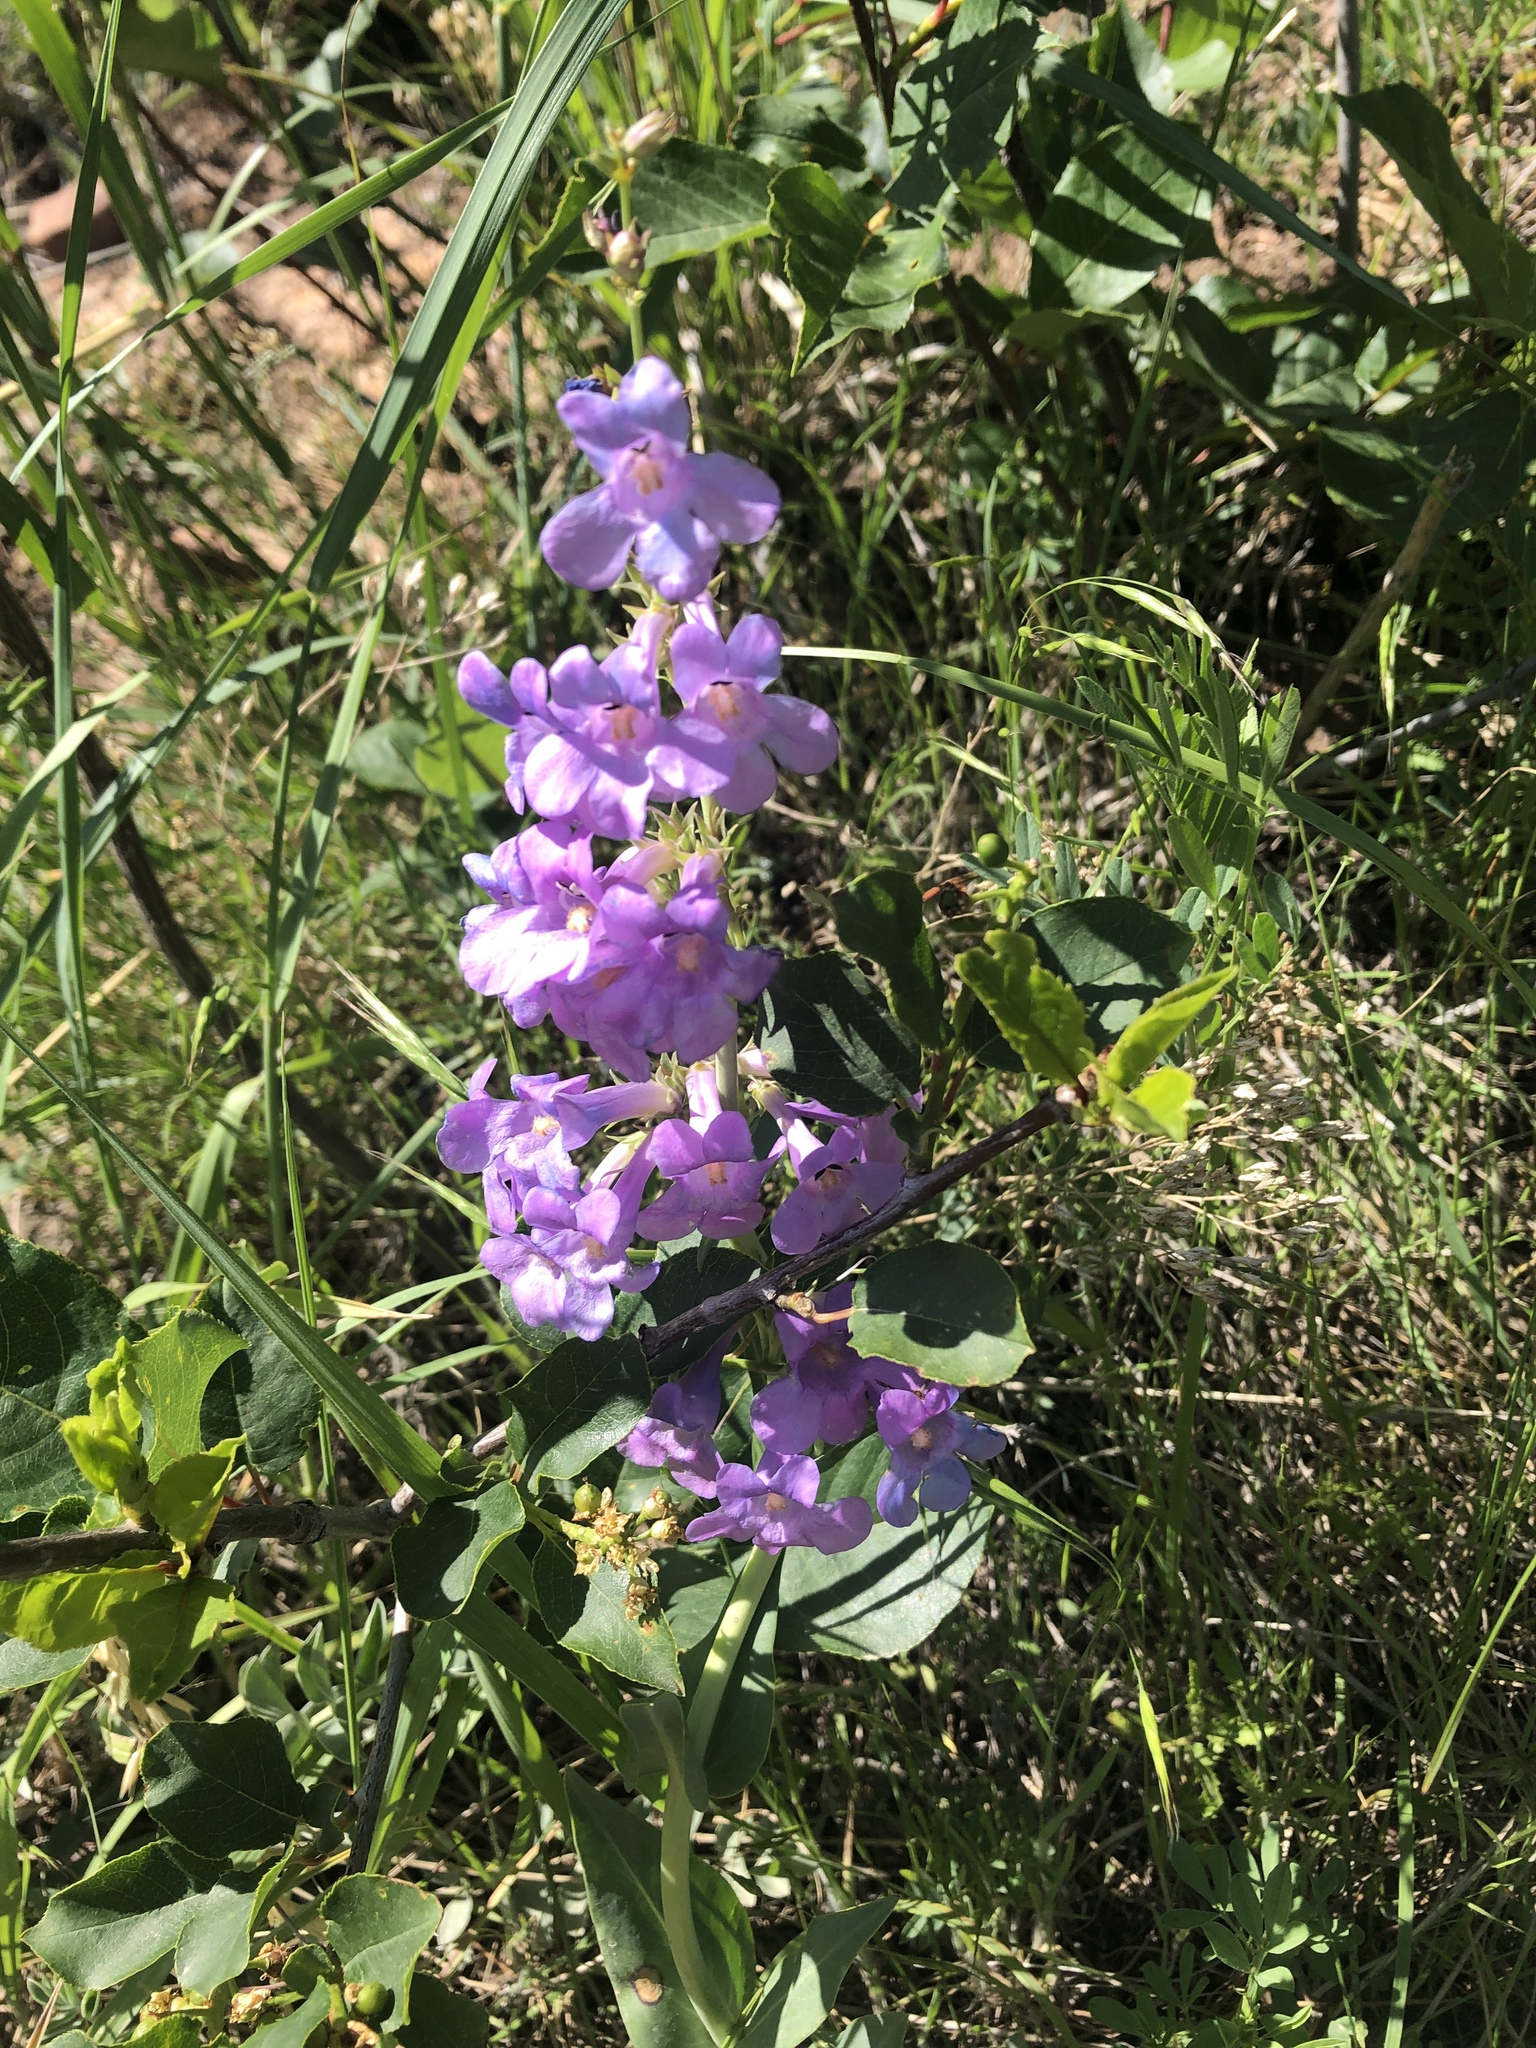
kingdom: Plantae
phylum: Tracheophyta
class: Magnoliopsida
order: Lamiales
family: Plantaginaceae
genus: Penstemon
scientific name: Penstemon secundiflorus
